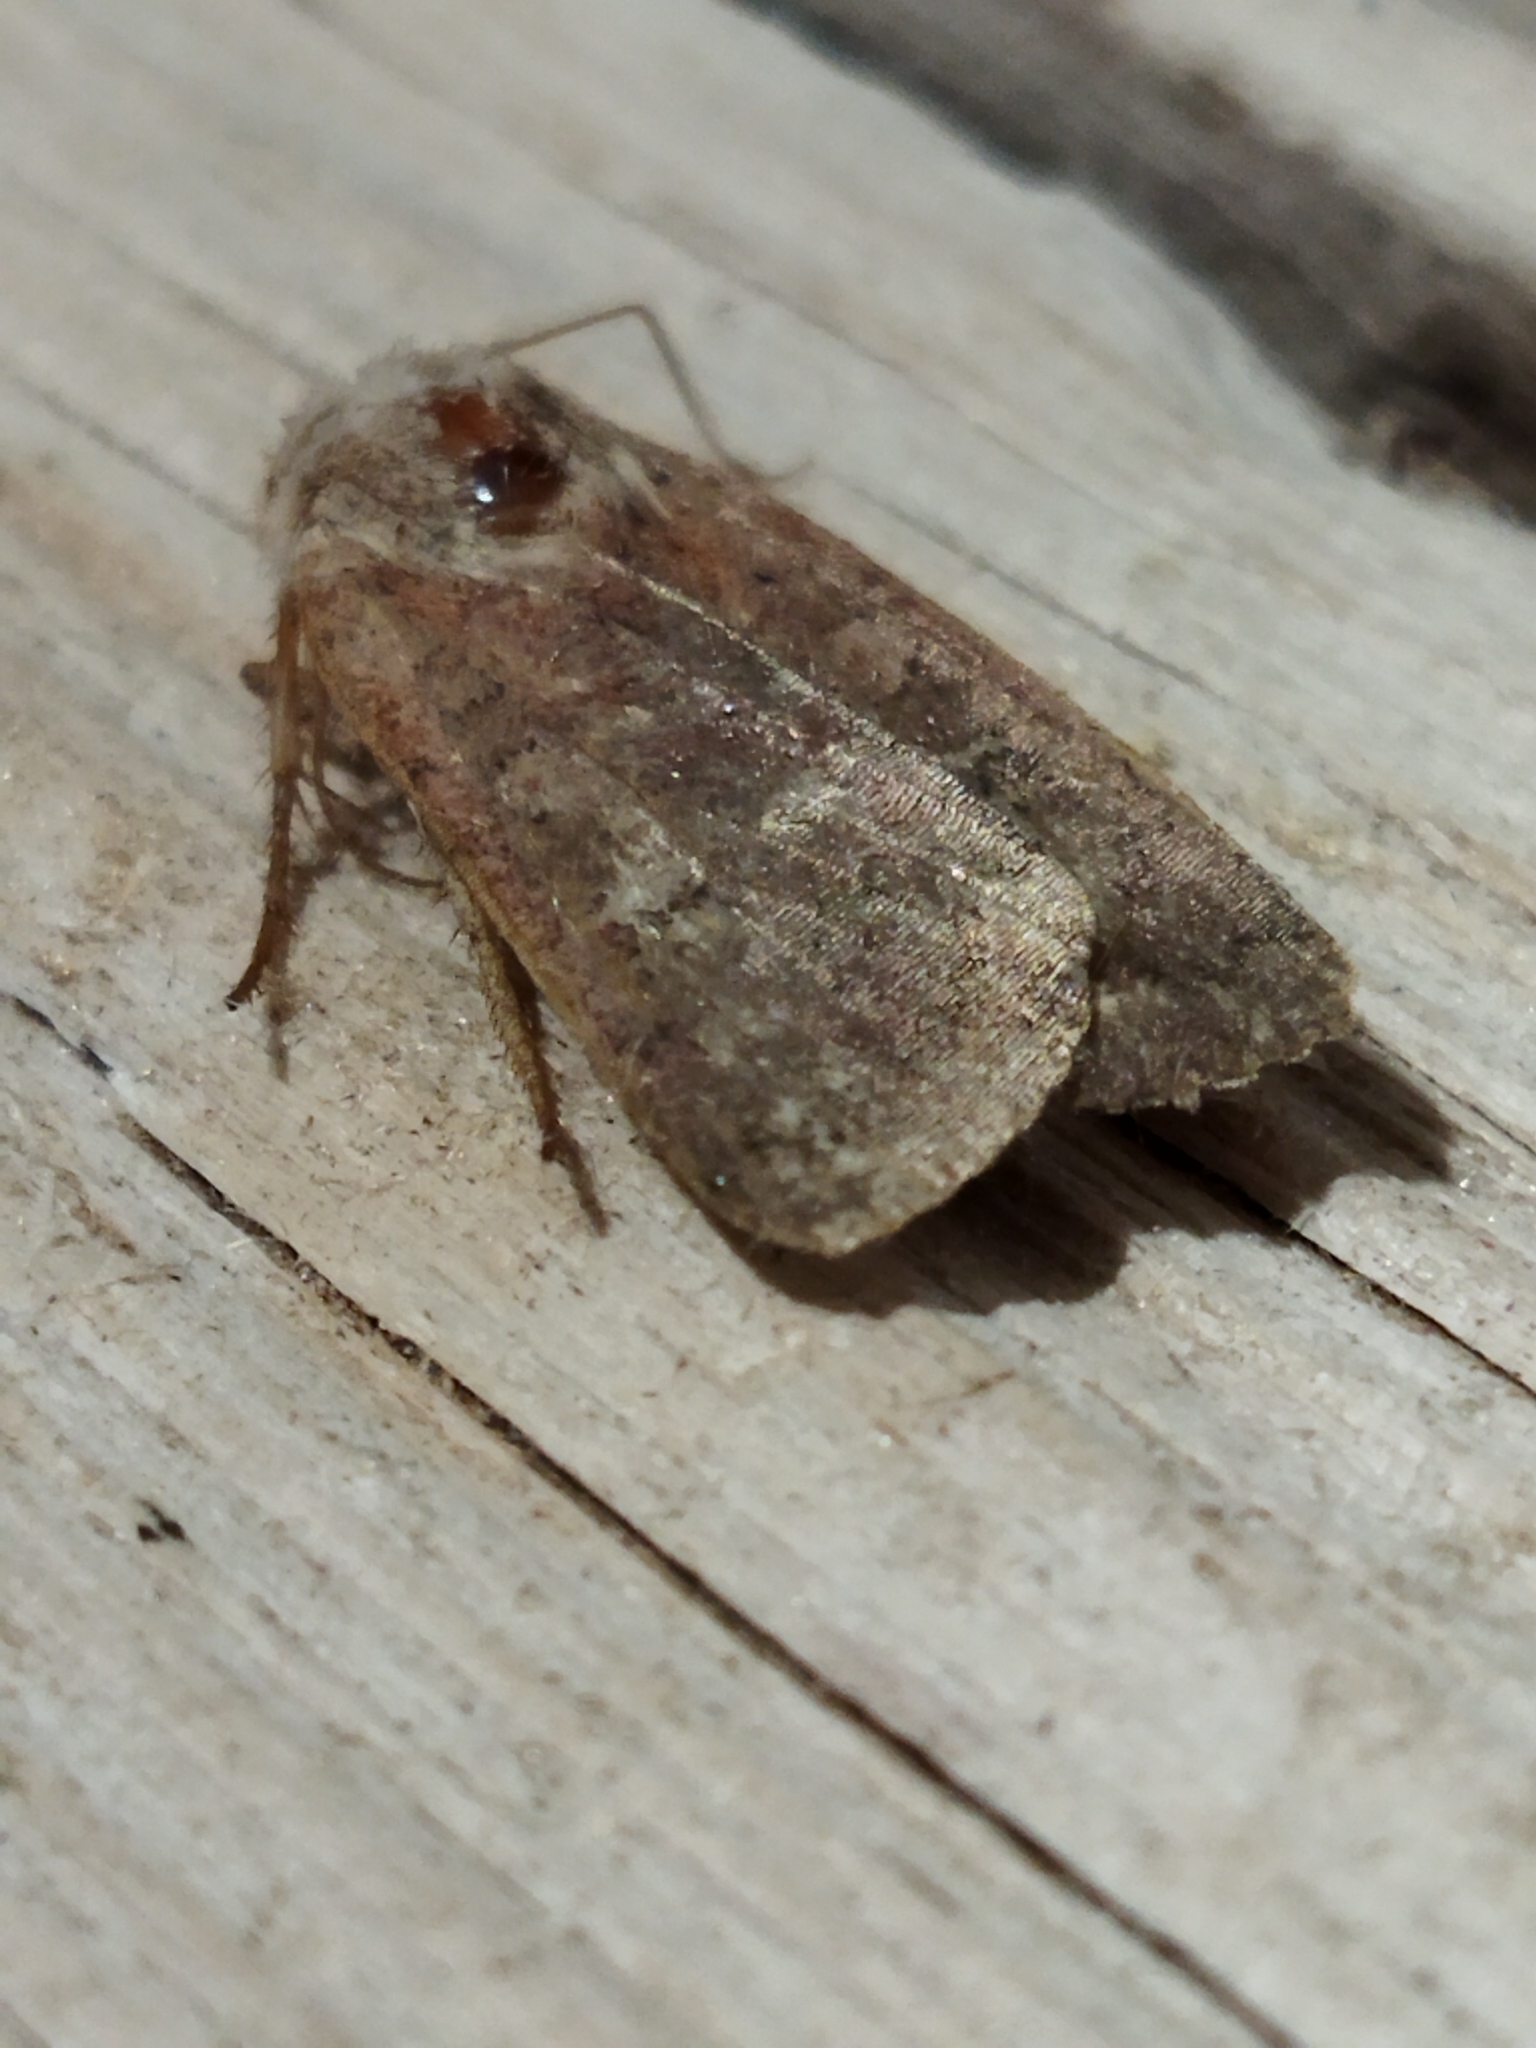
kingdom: Animalia
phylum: Arthropoda
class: Insecta
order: Lepidoptera
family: Noctuidae
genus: Xestia
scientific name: Xestia xanthographa
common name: Square-spot rustic
